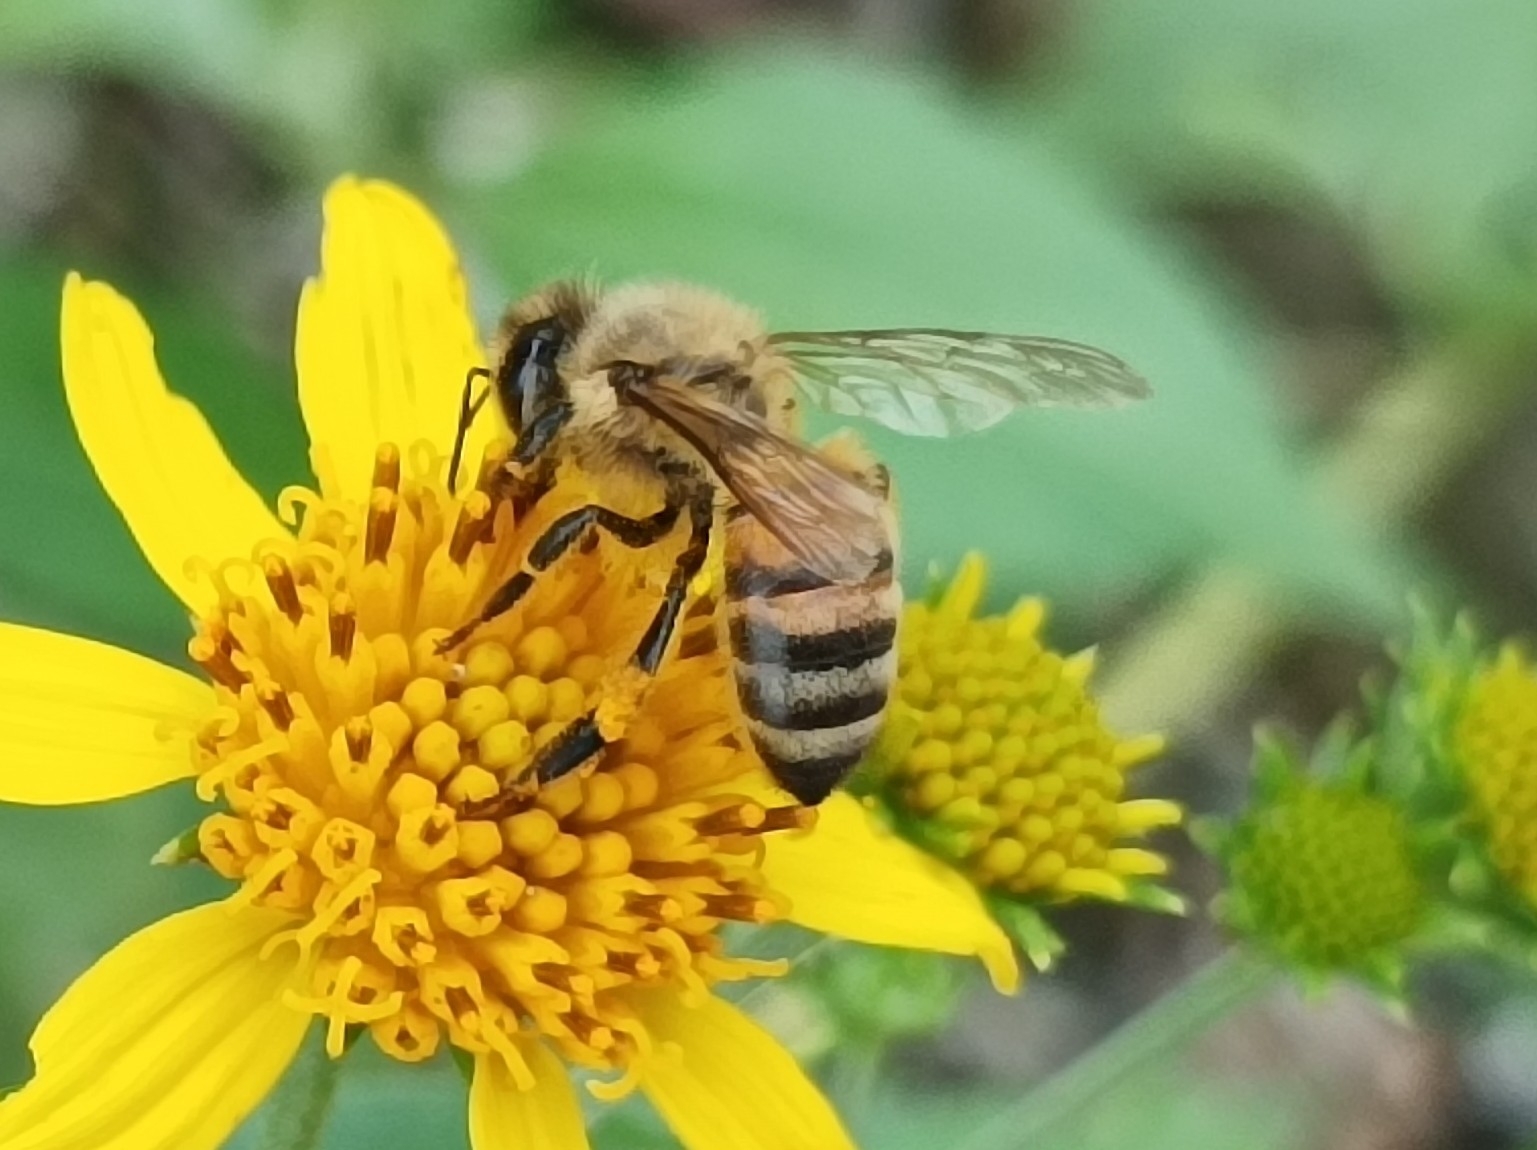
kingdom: Animalia
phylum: Arthropoda
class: Insecta
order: Hymenoptera
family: Apidae
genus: Apis
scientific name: Apis mellifera
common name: Honey bee
